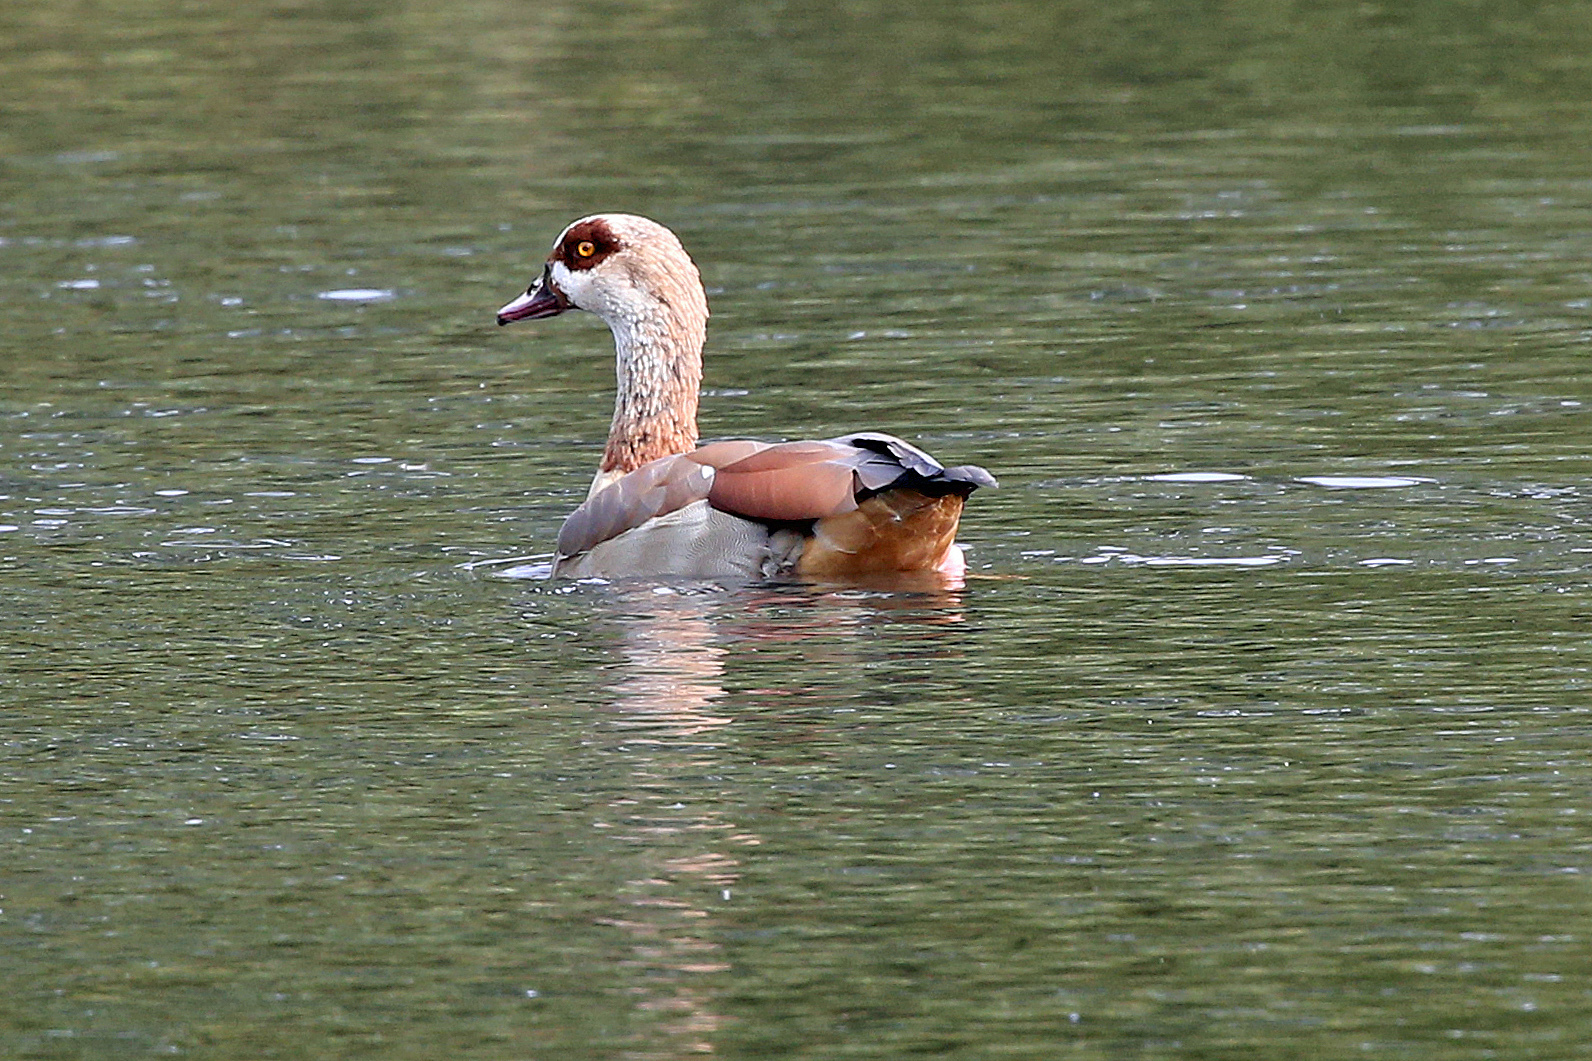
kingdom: Animalia
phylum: Chordata
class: Aves
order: Anseriformes
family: Anatidae
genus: Alopochen
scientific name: Alopochen aegyptiaca
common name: Egyptian goose
